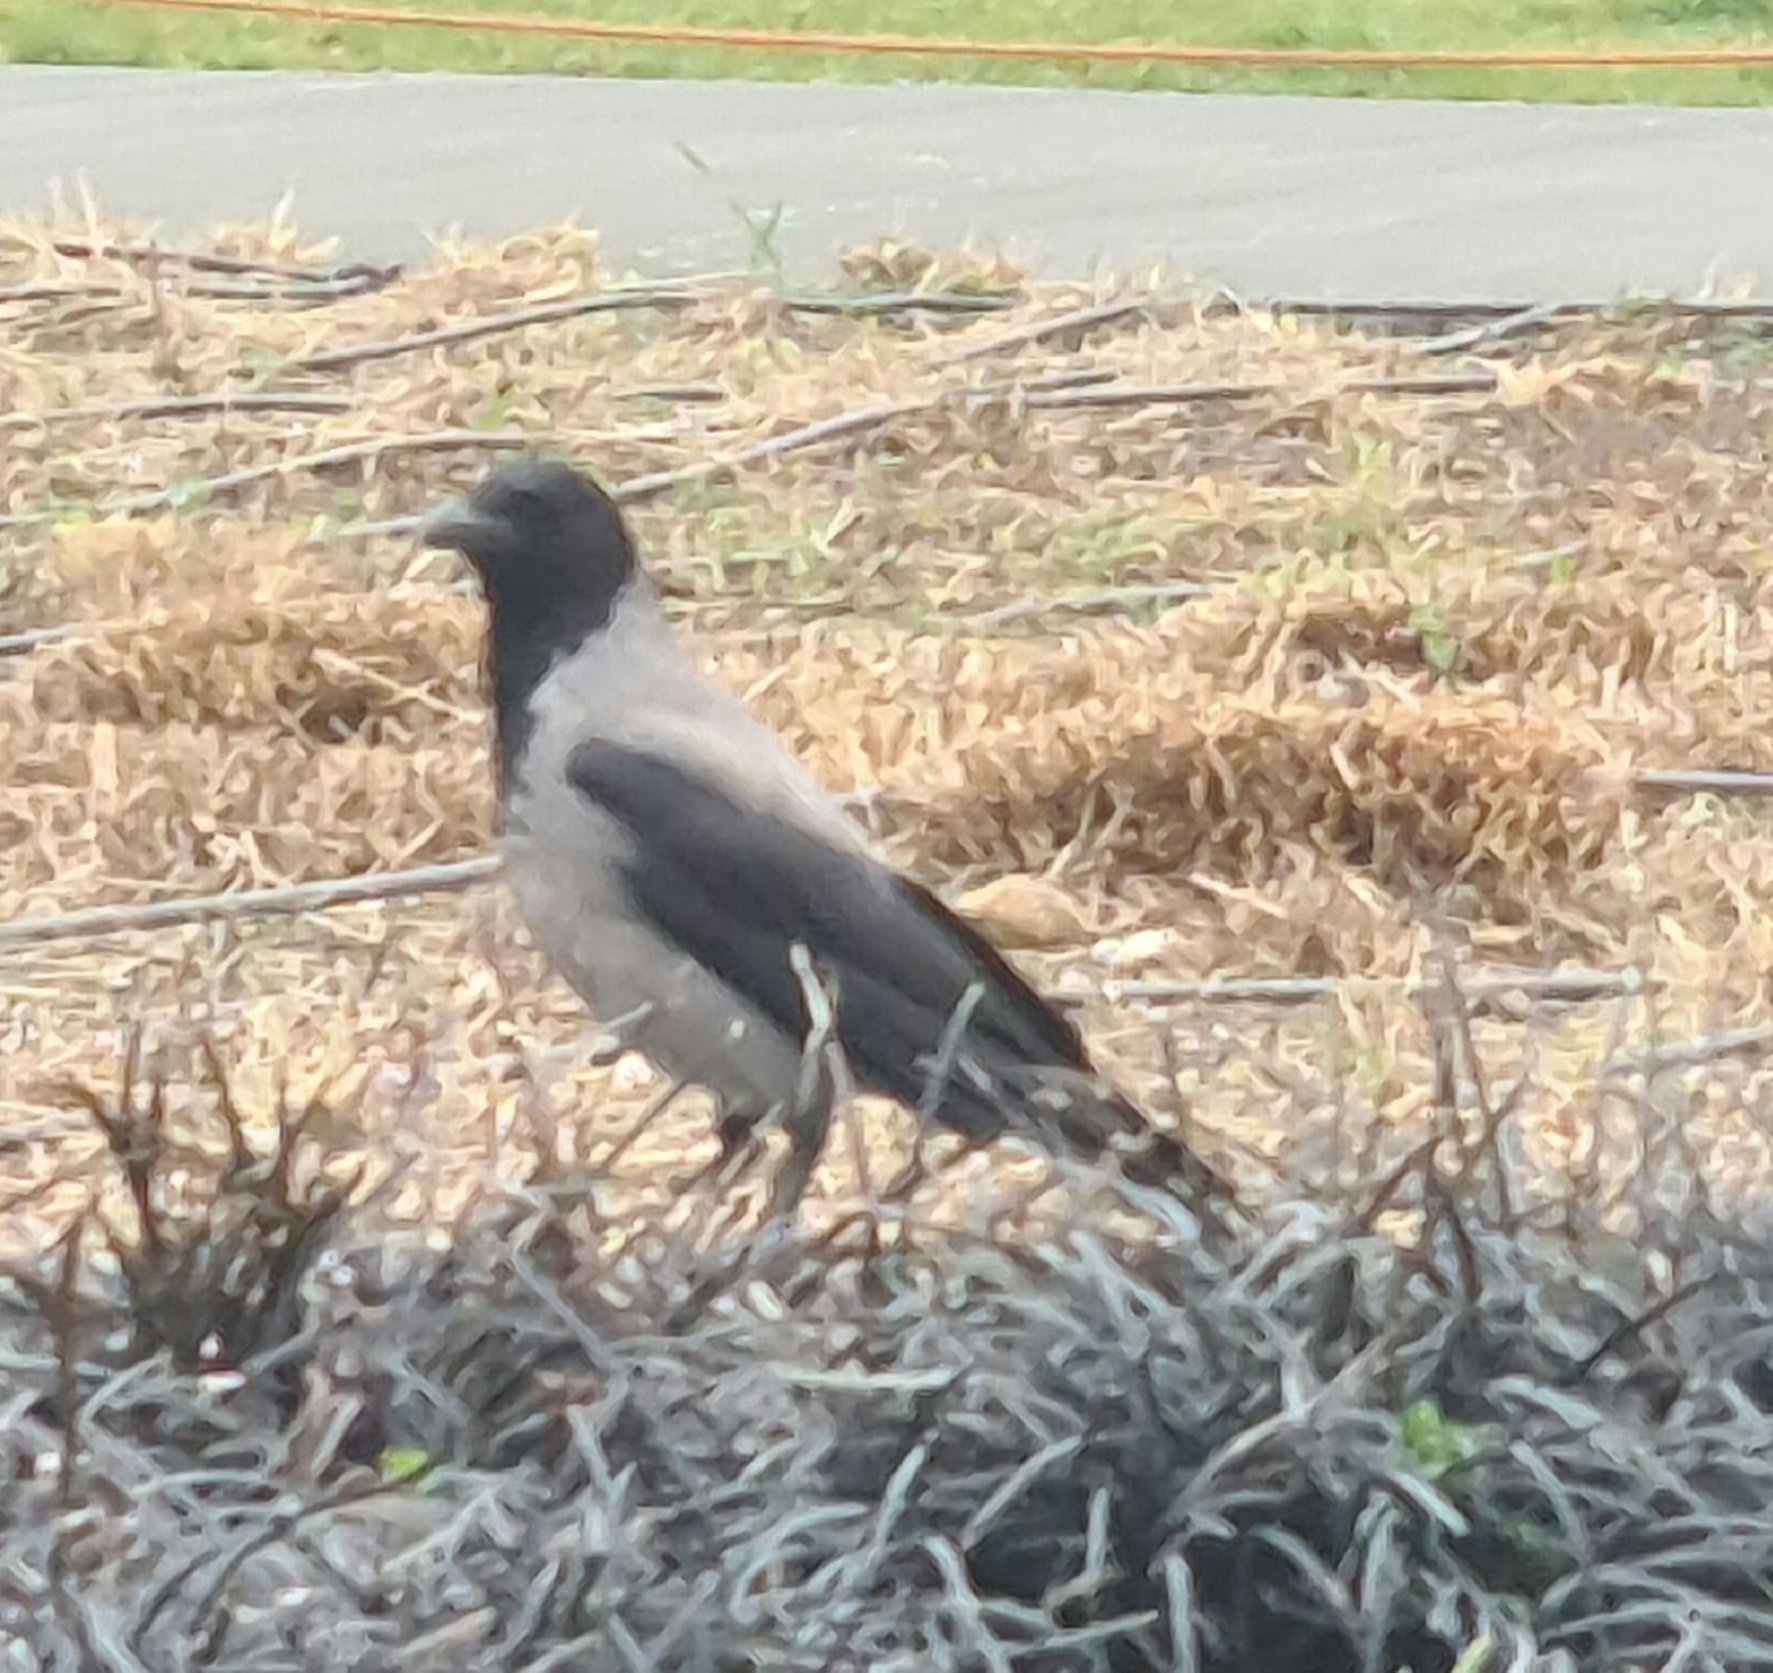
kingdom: Animalia
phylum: Chordata
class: Aves
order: Passeriformes
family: Corvidae
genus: Corvus
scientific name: Corvus cornix
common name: Hooded crow
